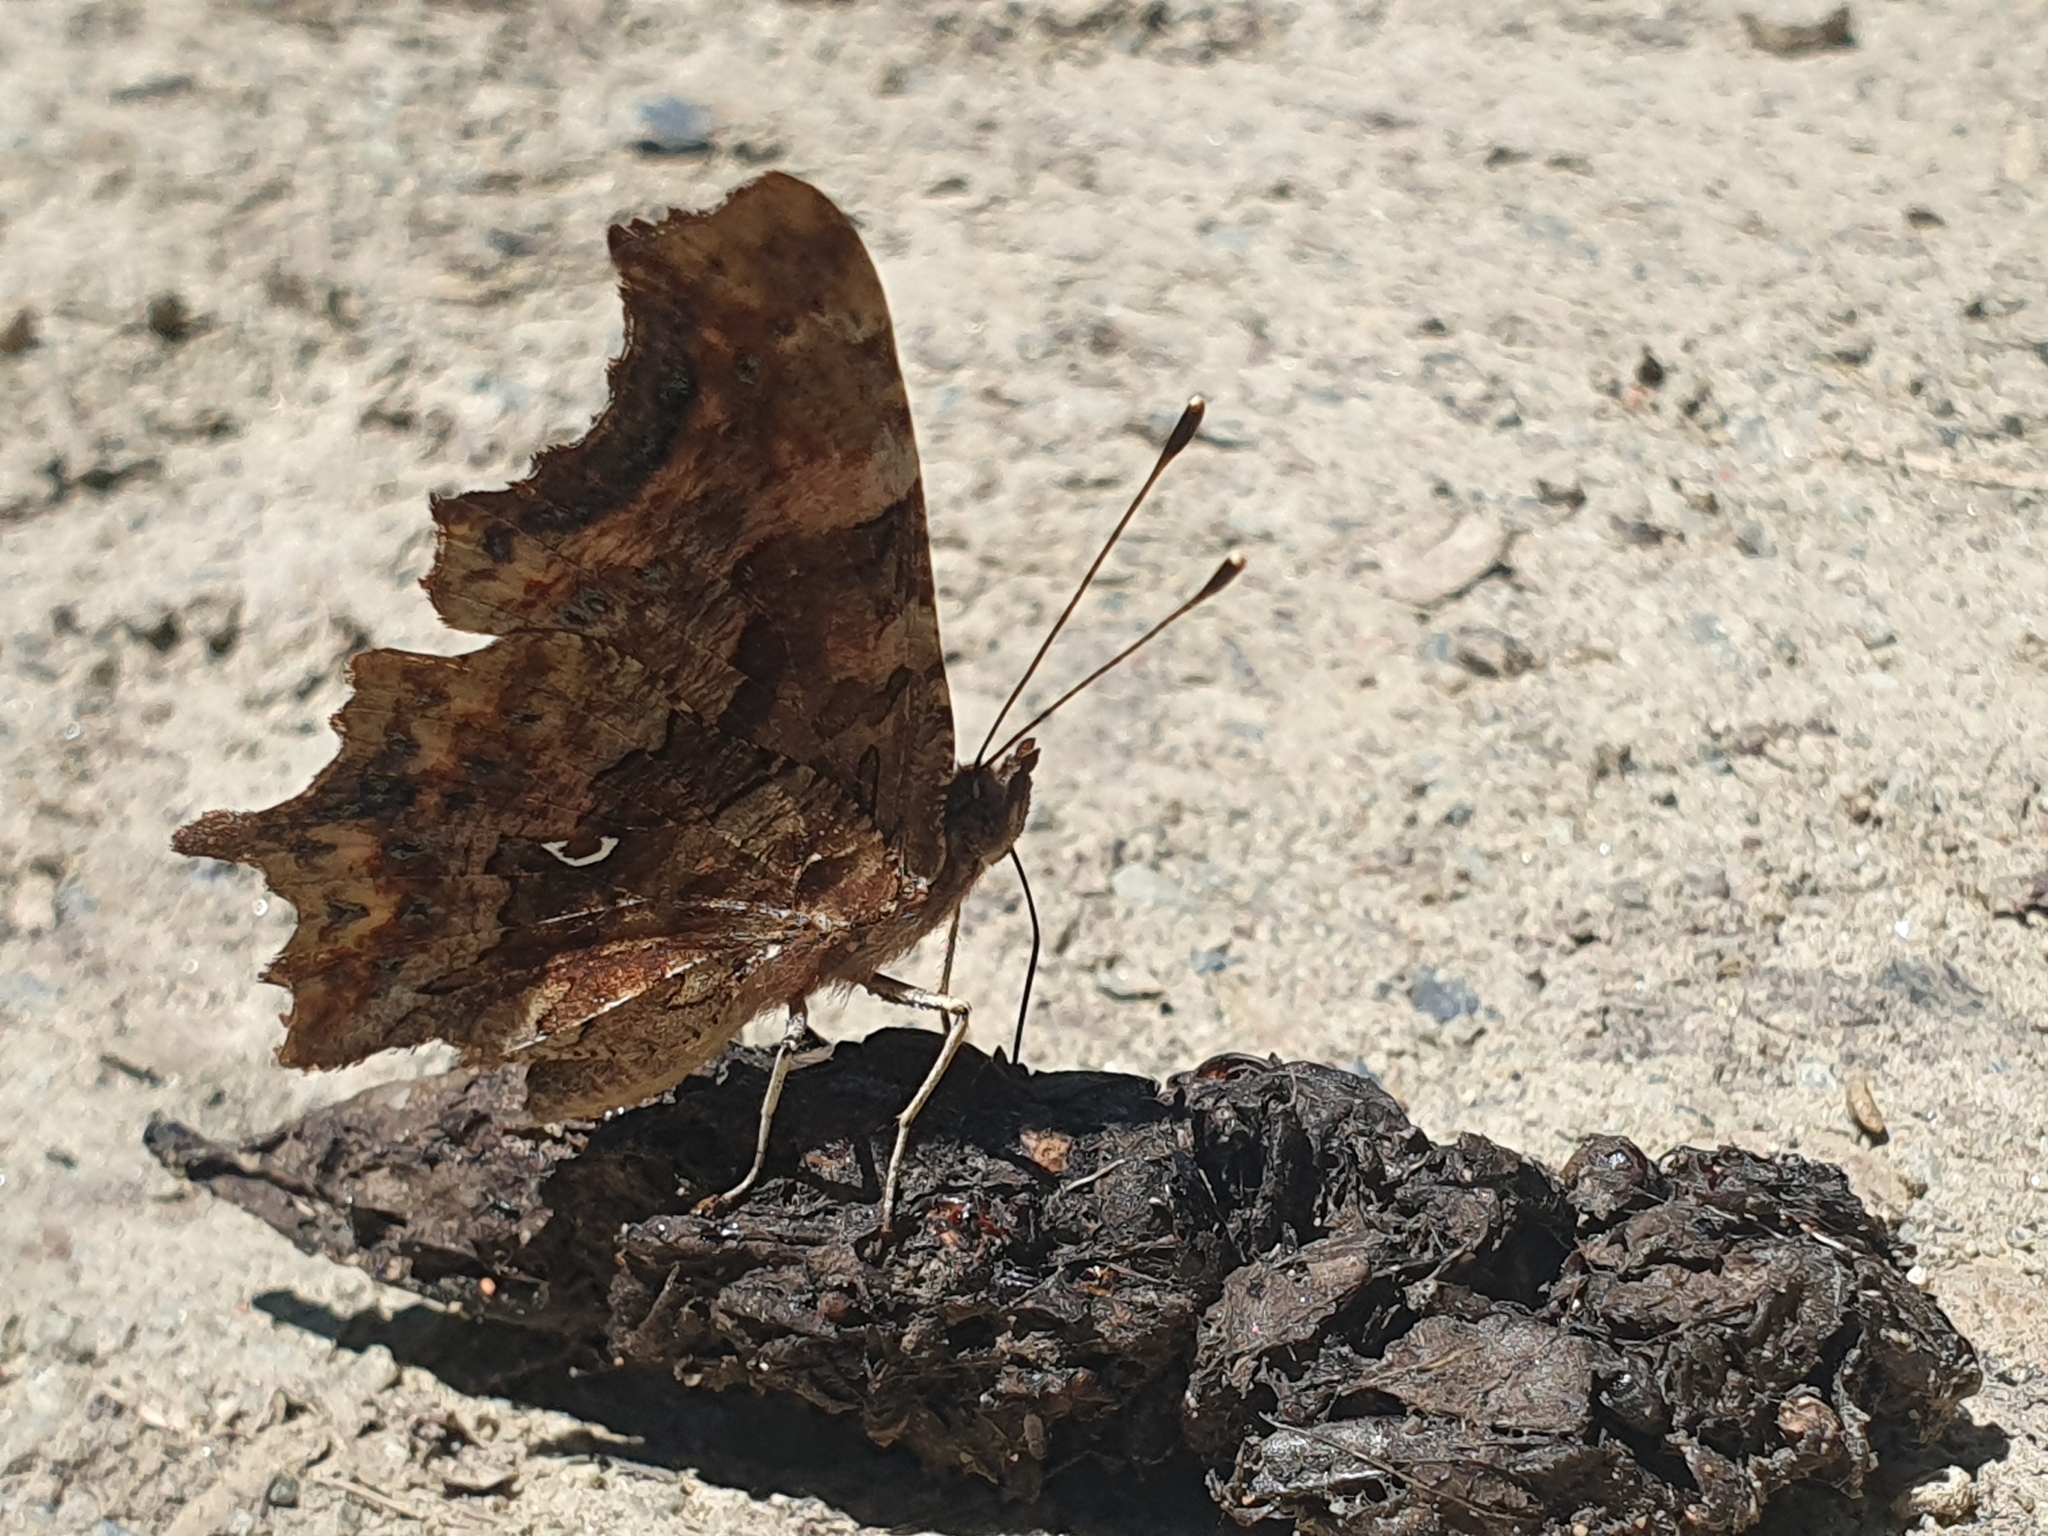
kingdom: Animalia
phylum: Arthropoda
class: Insecta
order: Lepidoptera
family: Nymphalidae
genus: Polygonia
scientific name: Polygonia c-album
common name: Comma
